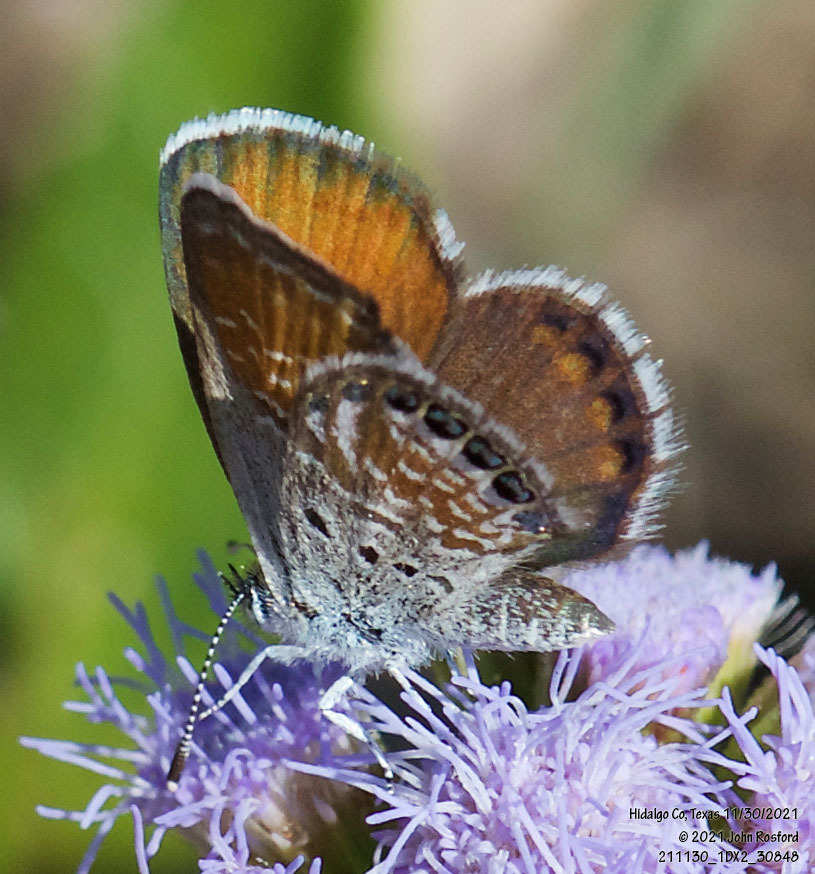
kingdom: Animalia
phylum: Arthropoda
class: Insecta
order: Lepidoptera
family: Lycaenidae
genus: Brephidium
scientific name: Brephidium exilis
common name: Pygmy blue
